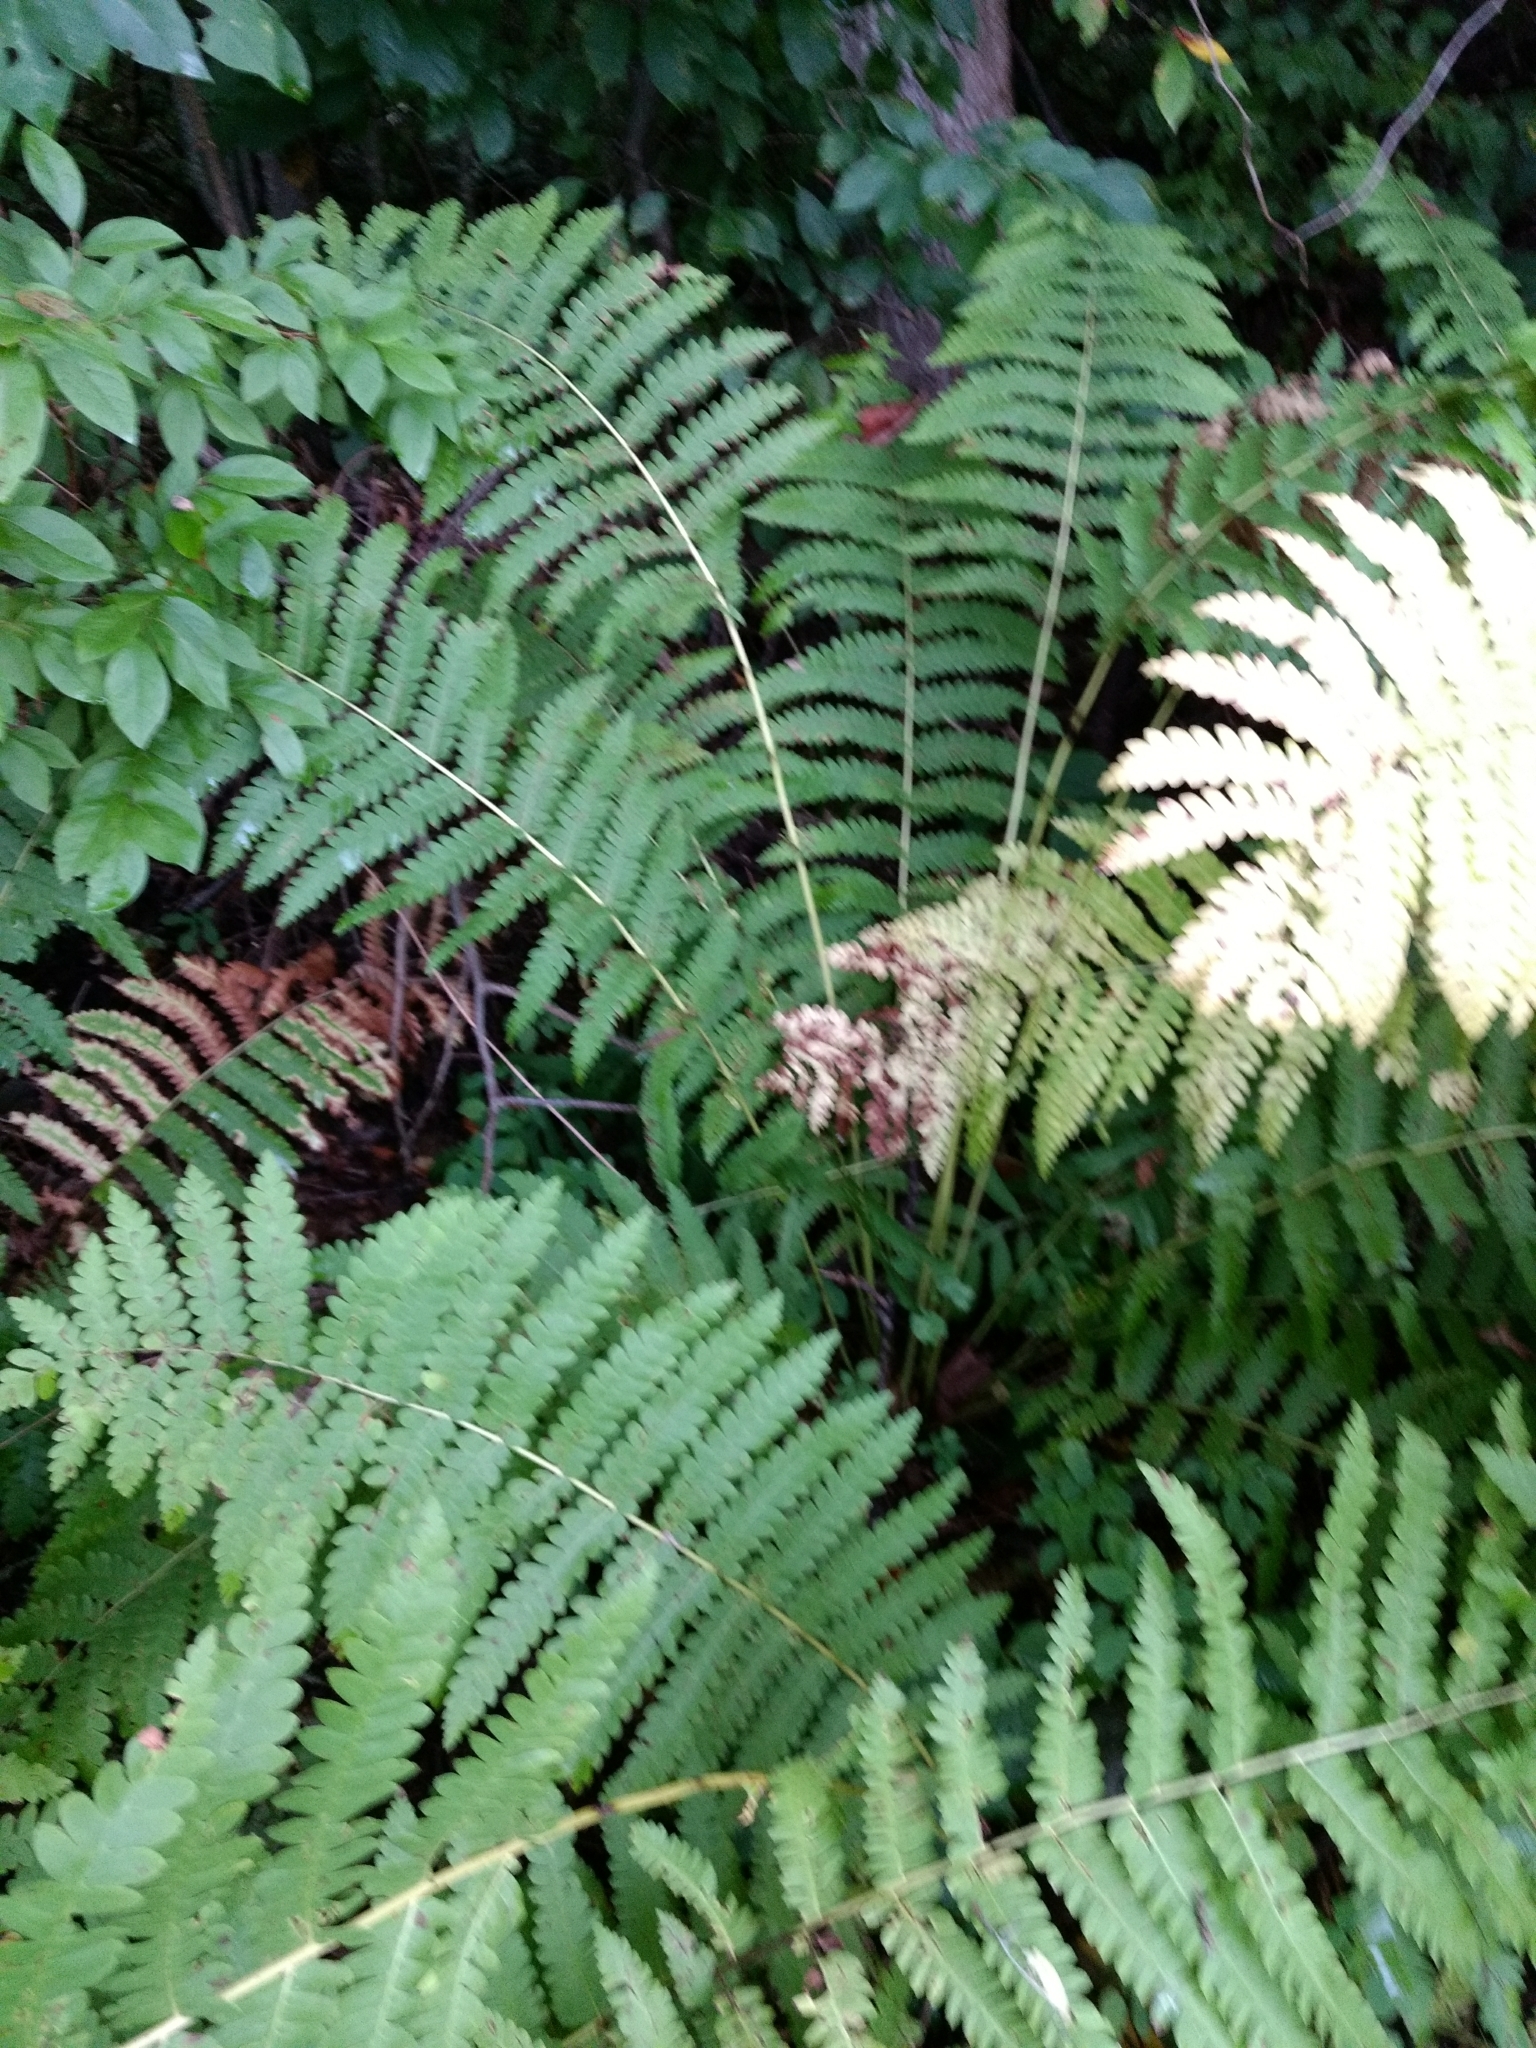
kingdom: Plantae
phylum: Tracheophyta
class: Polypodiopsida
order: Osmundales
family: Osmundaceae
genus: Claytosmunda
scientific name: Claytosmunda claytoniana
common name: Clayton's fern
